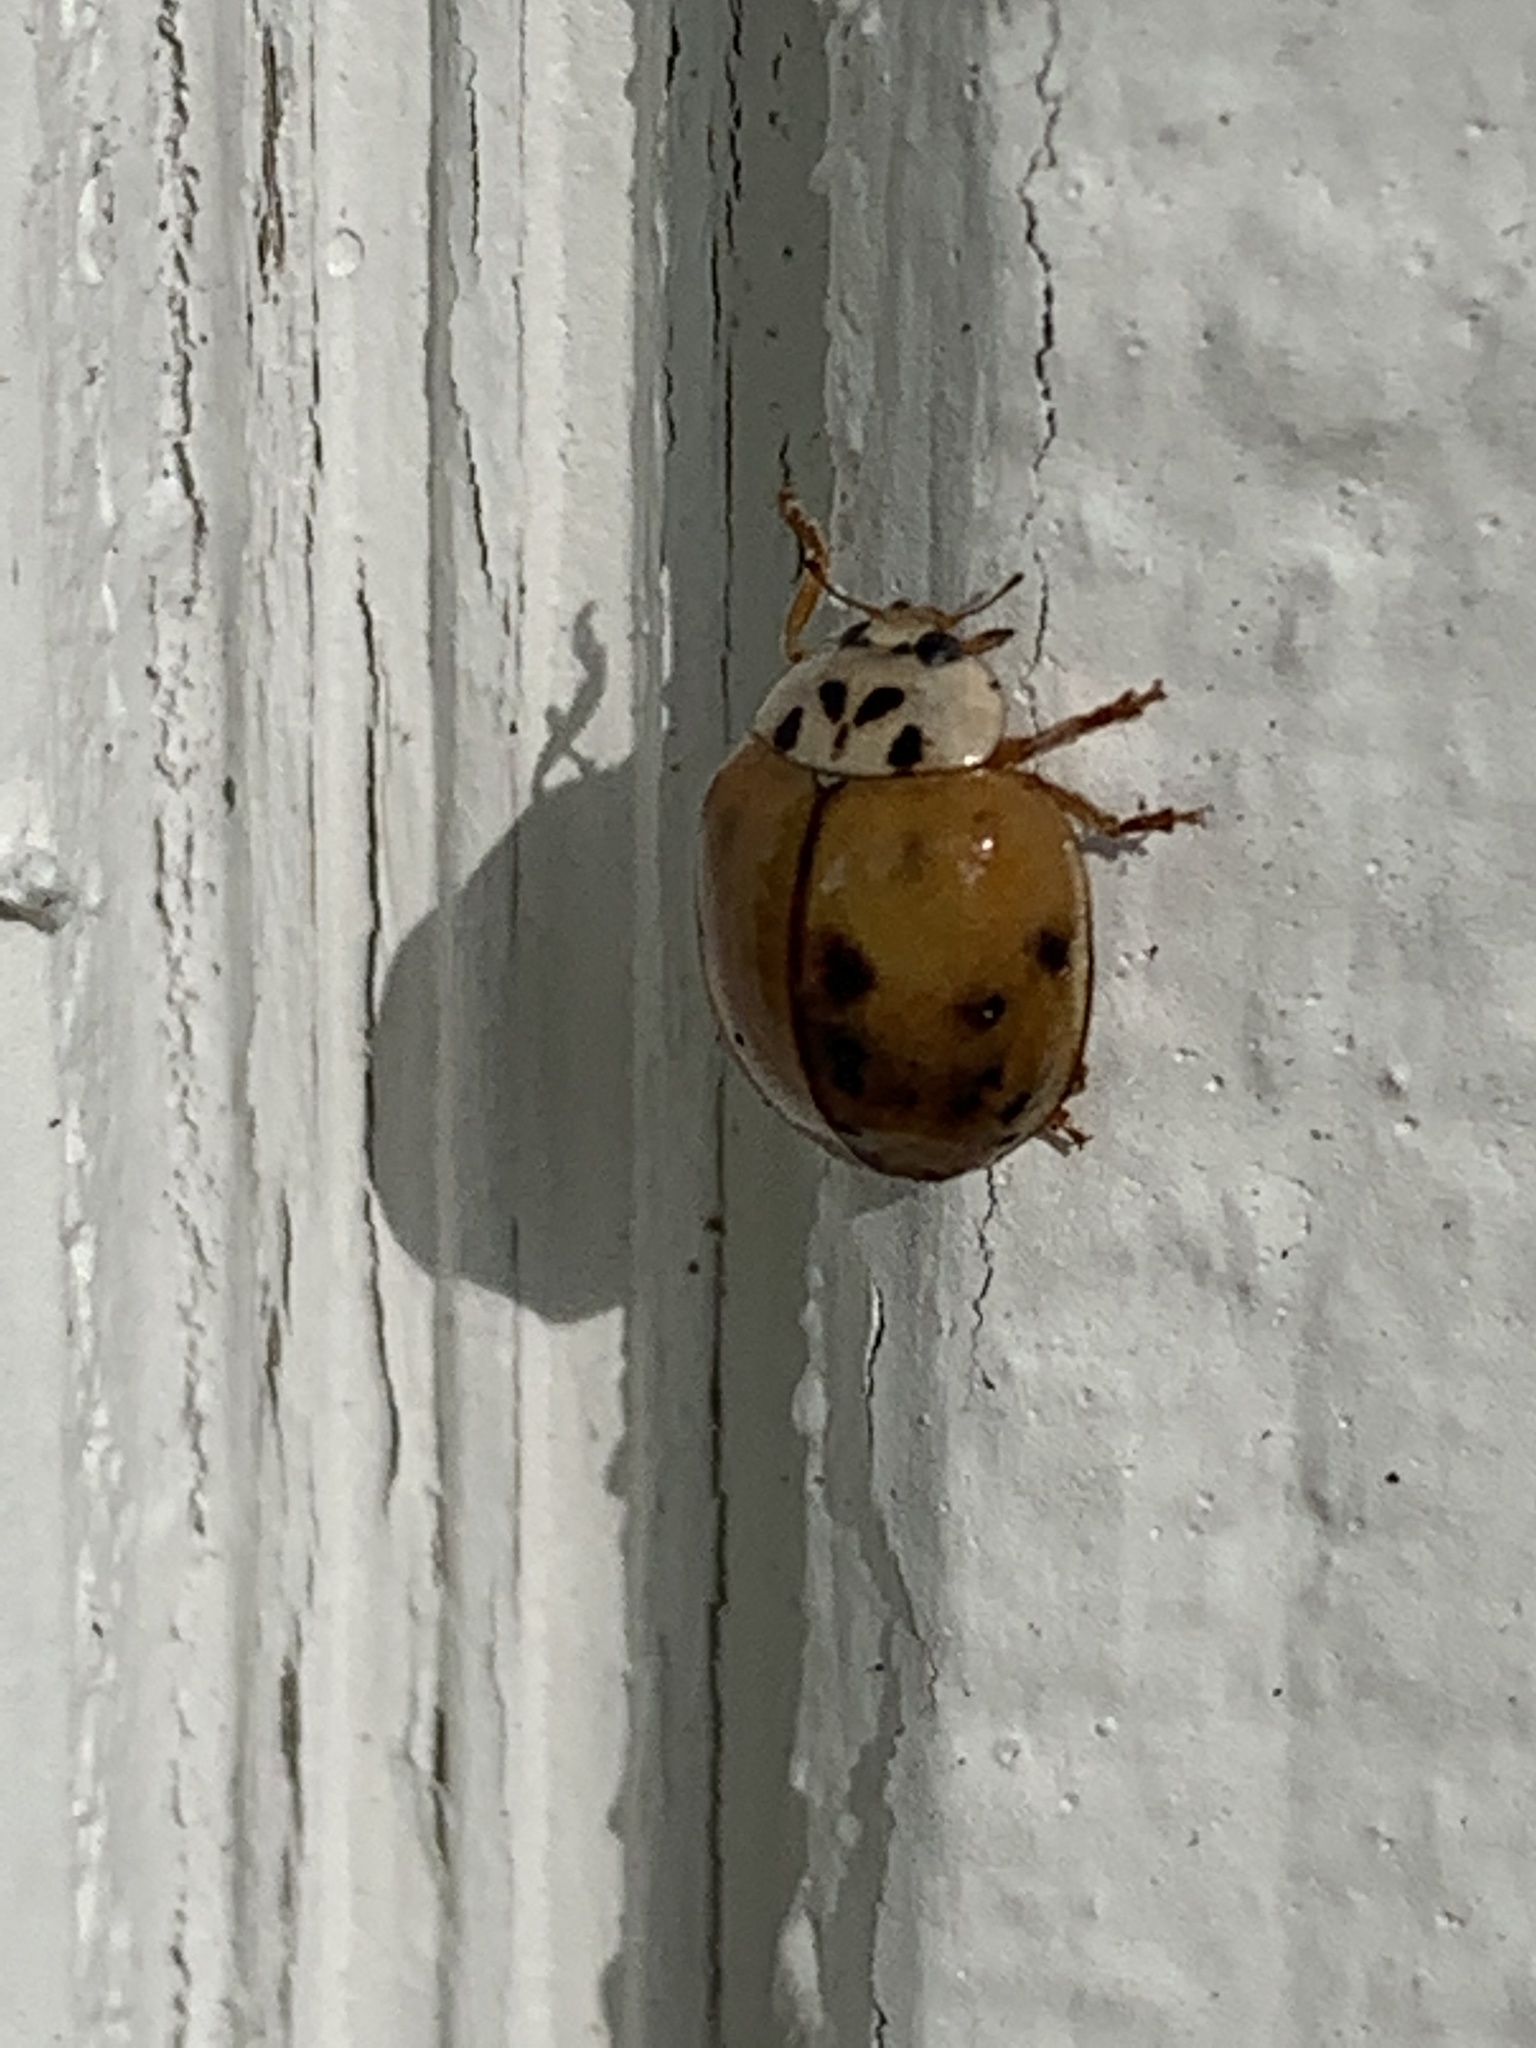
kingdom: Animalia
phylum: Arthropoda
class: Insecta
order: Coleoptera
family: Coccinellidae
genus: Harmonia
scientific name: Harmonia axyridis
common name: Harlequin ladybird
